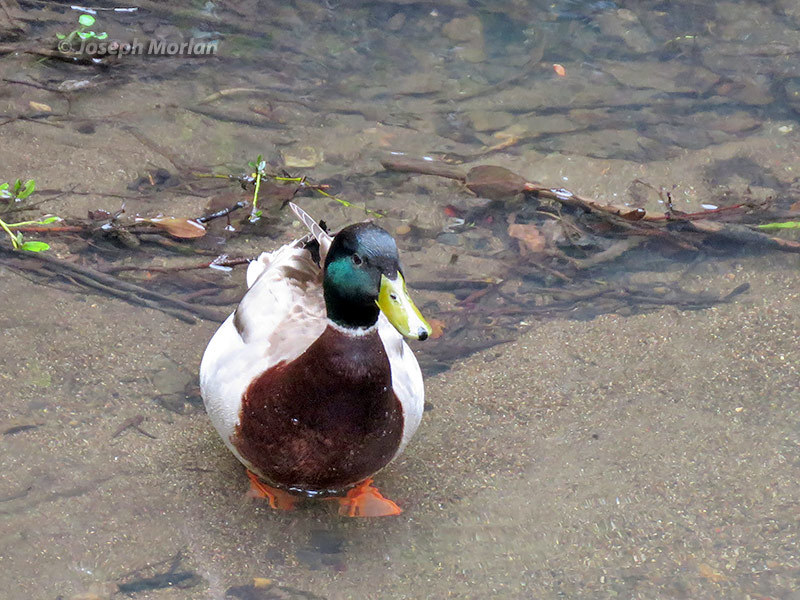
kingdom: Animalia
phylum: Chordata
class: Aves
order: Anseriformes
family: Anatidae
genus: Anas
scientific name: Anas platyrhynchos
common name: Mallard
